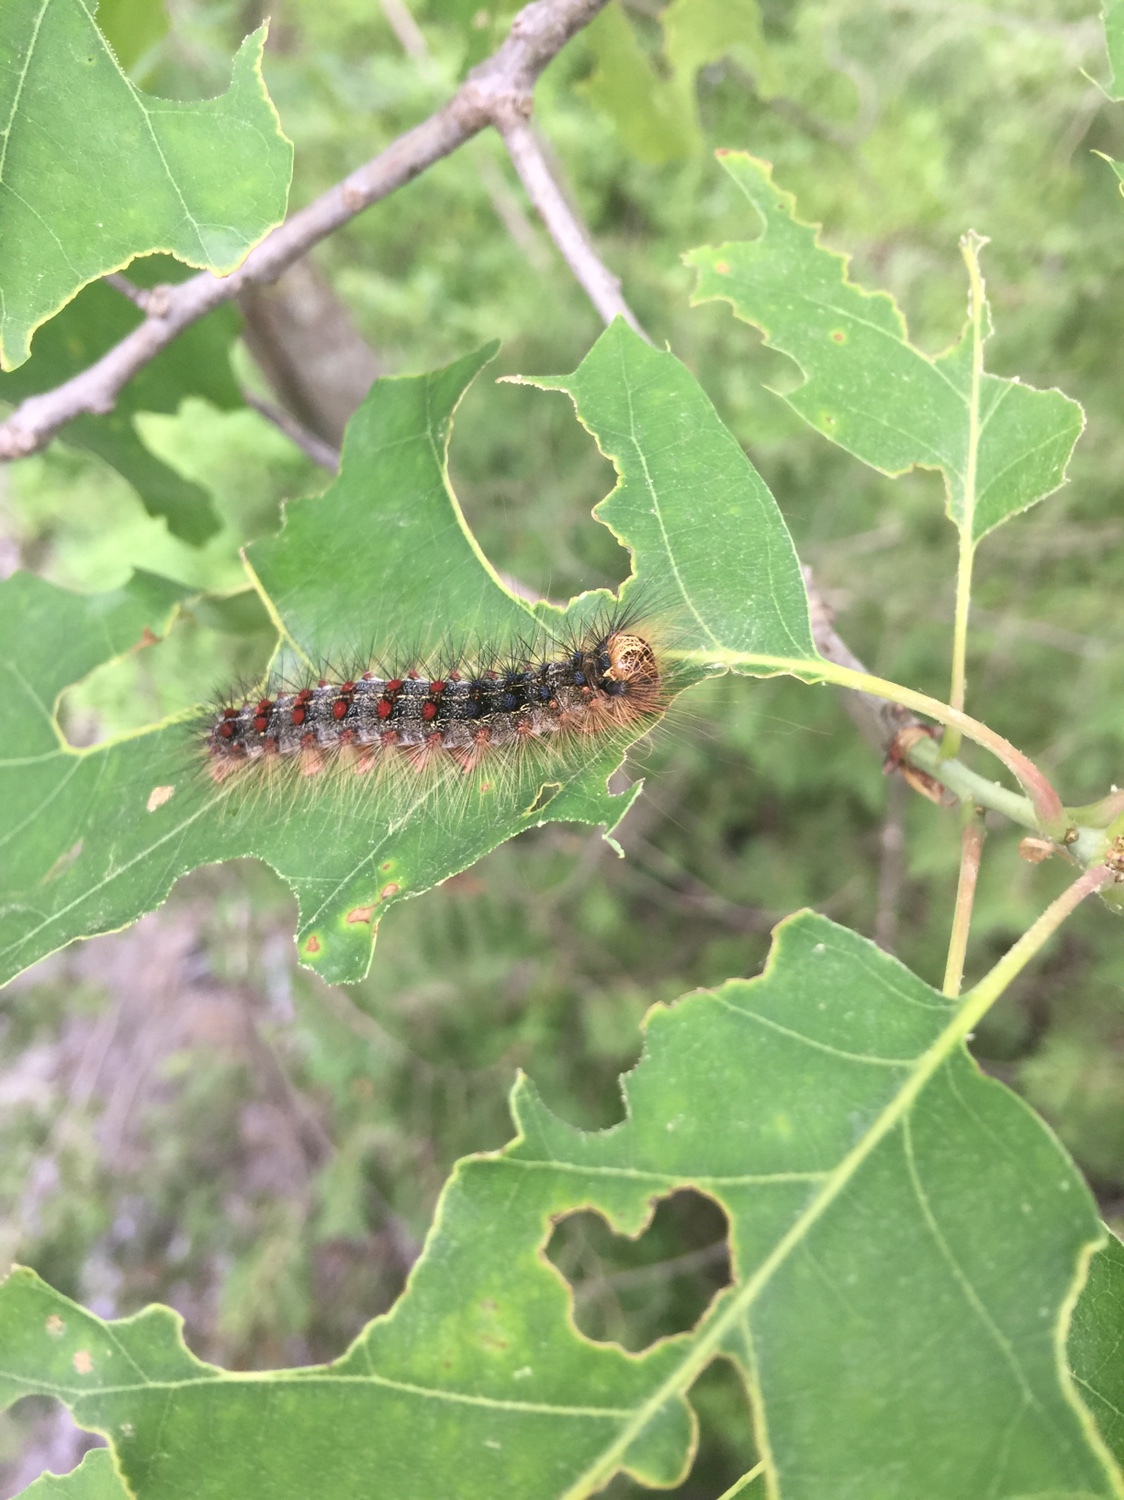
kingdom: Animalia
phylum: Arthropoda
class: Insecta
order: Lepidoptera
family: Erebidae
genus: Lymantria
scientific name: Lymantria dispar
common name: Gypsy moth
